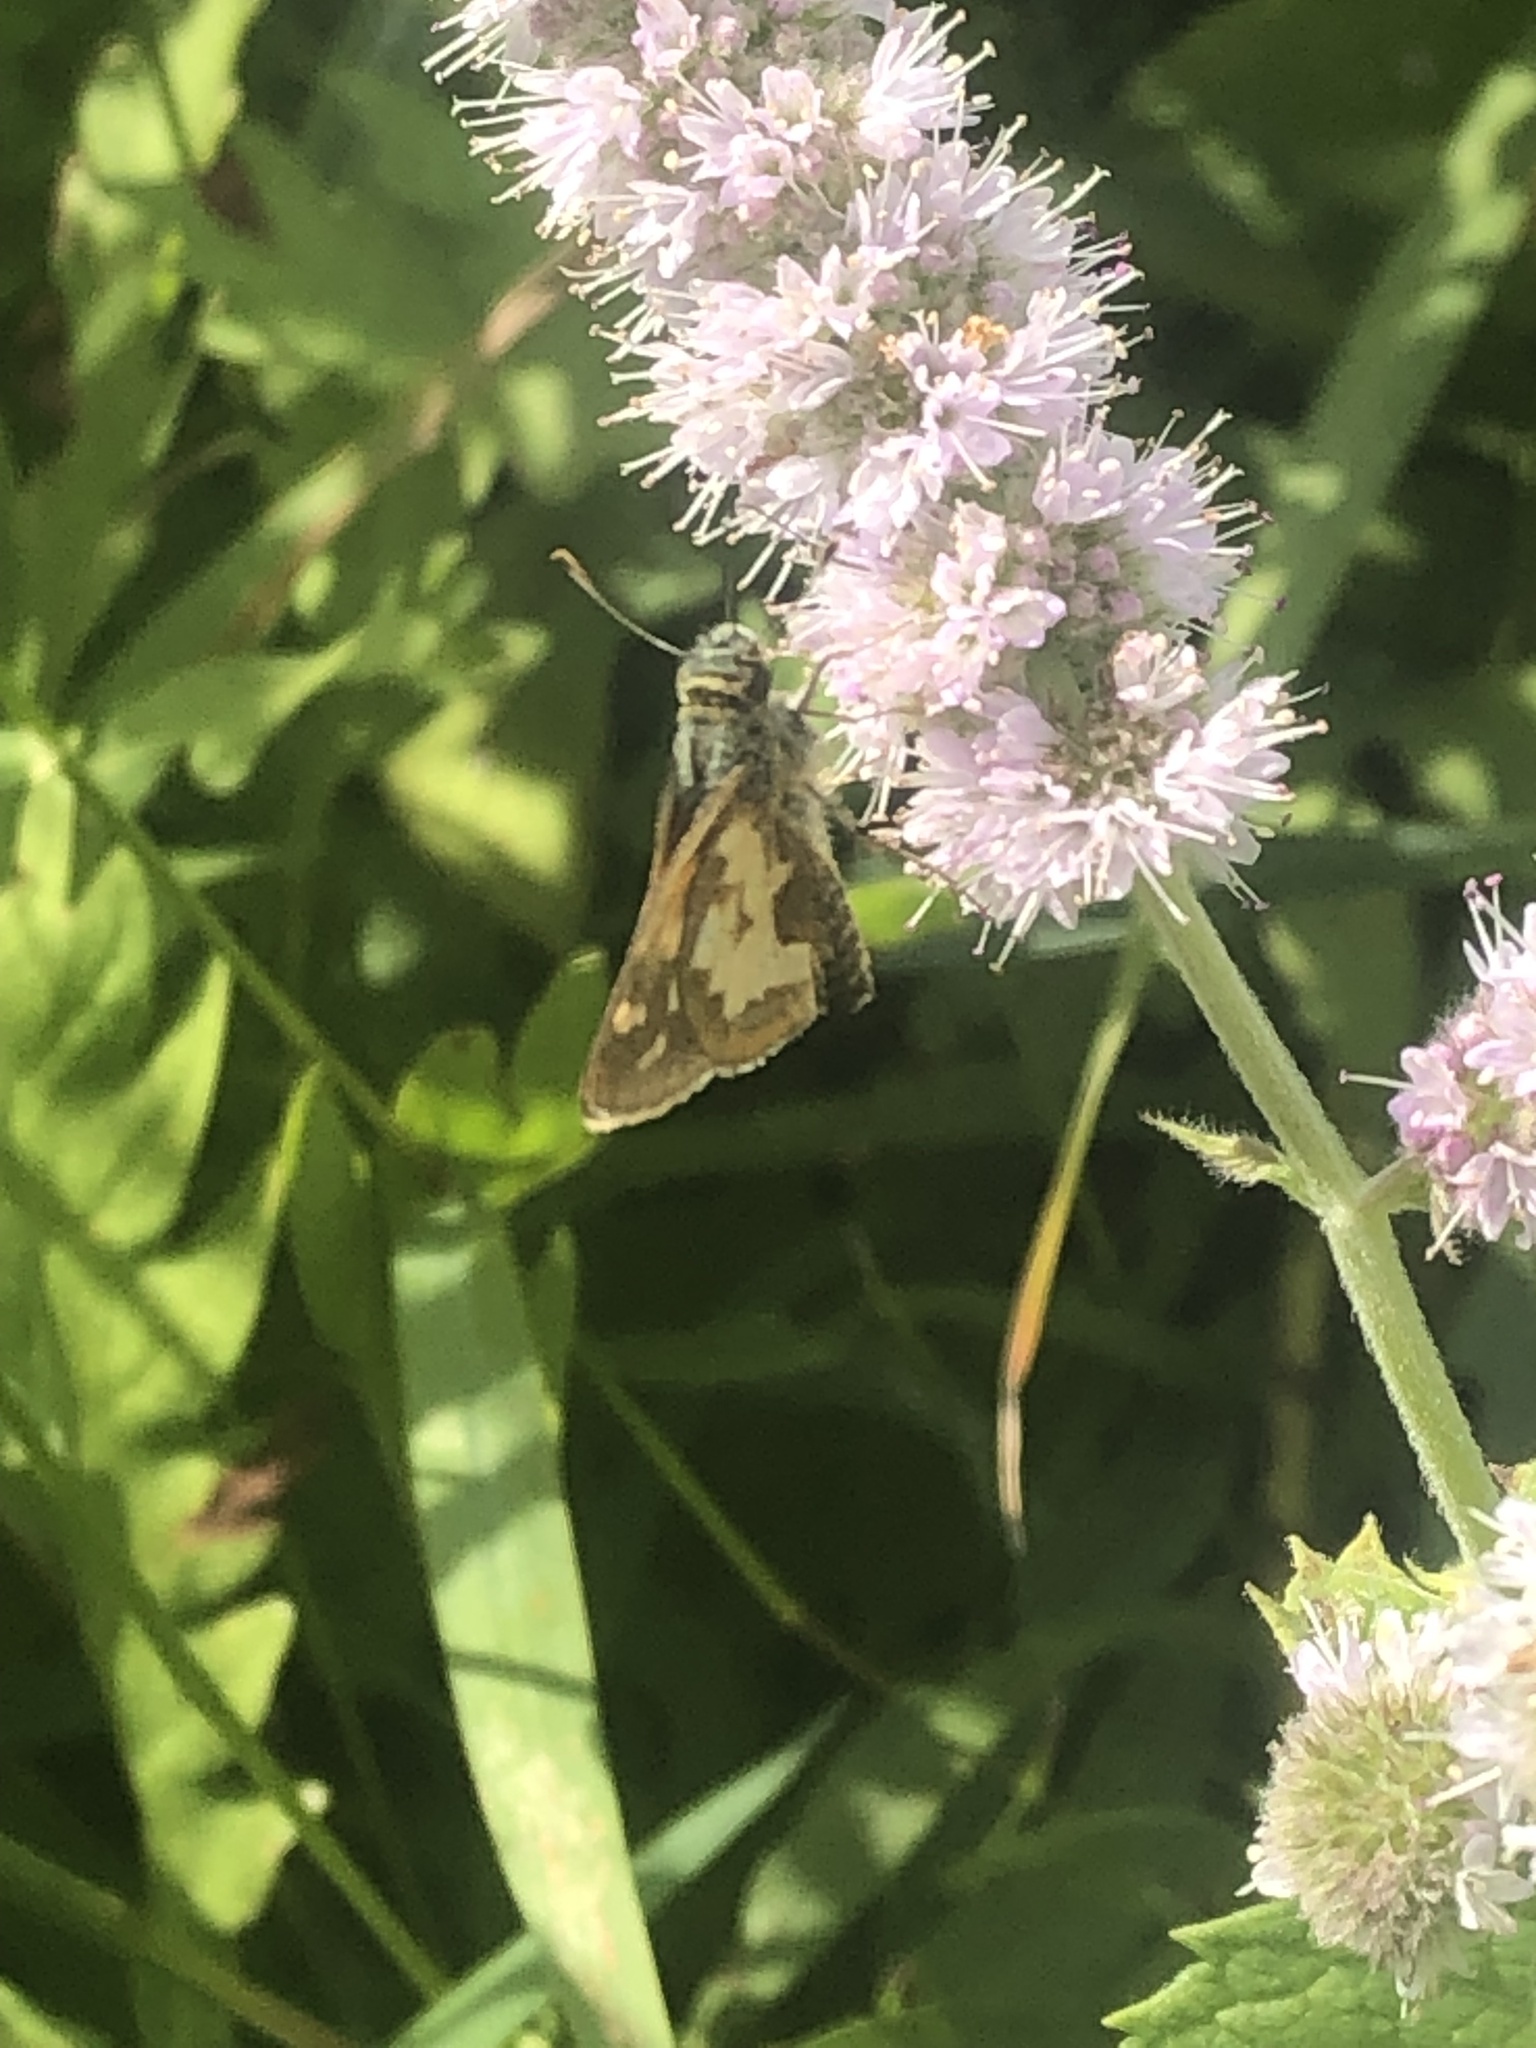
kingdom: Animalia
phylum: Arthropoda
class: Insecta
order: Lepidoptera
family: Hesperiidae
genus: Polites
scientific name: Polites coras
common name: Peck's skipper
